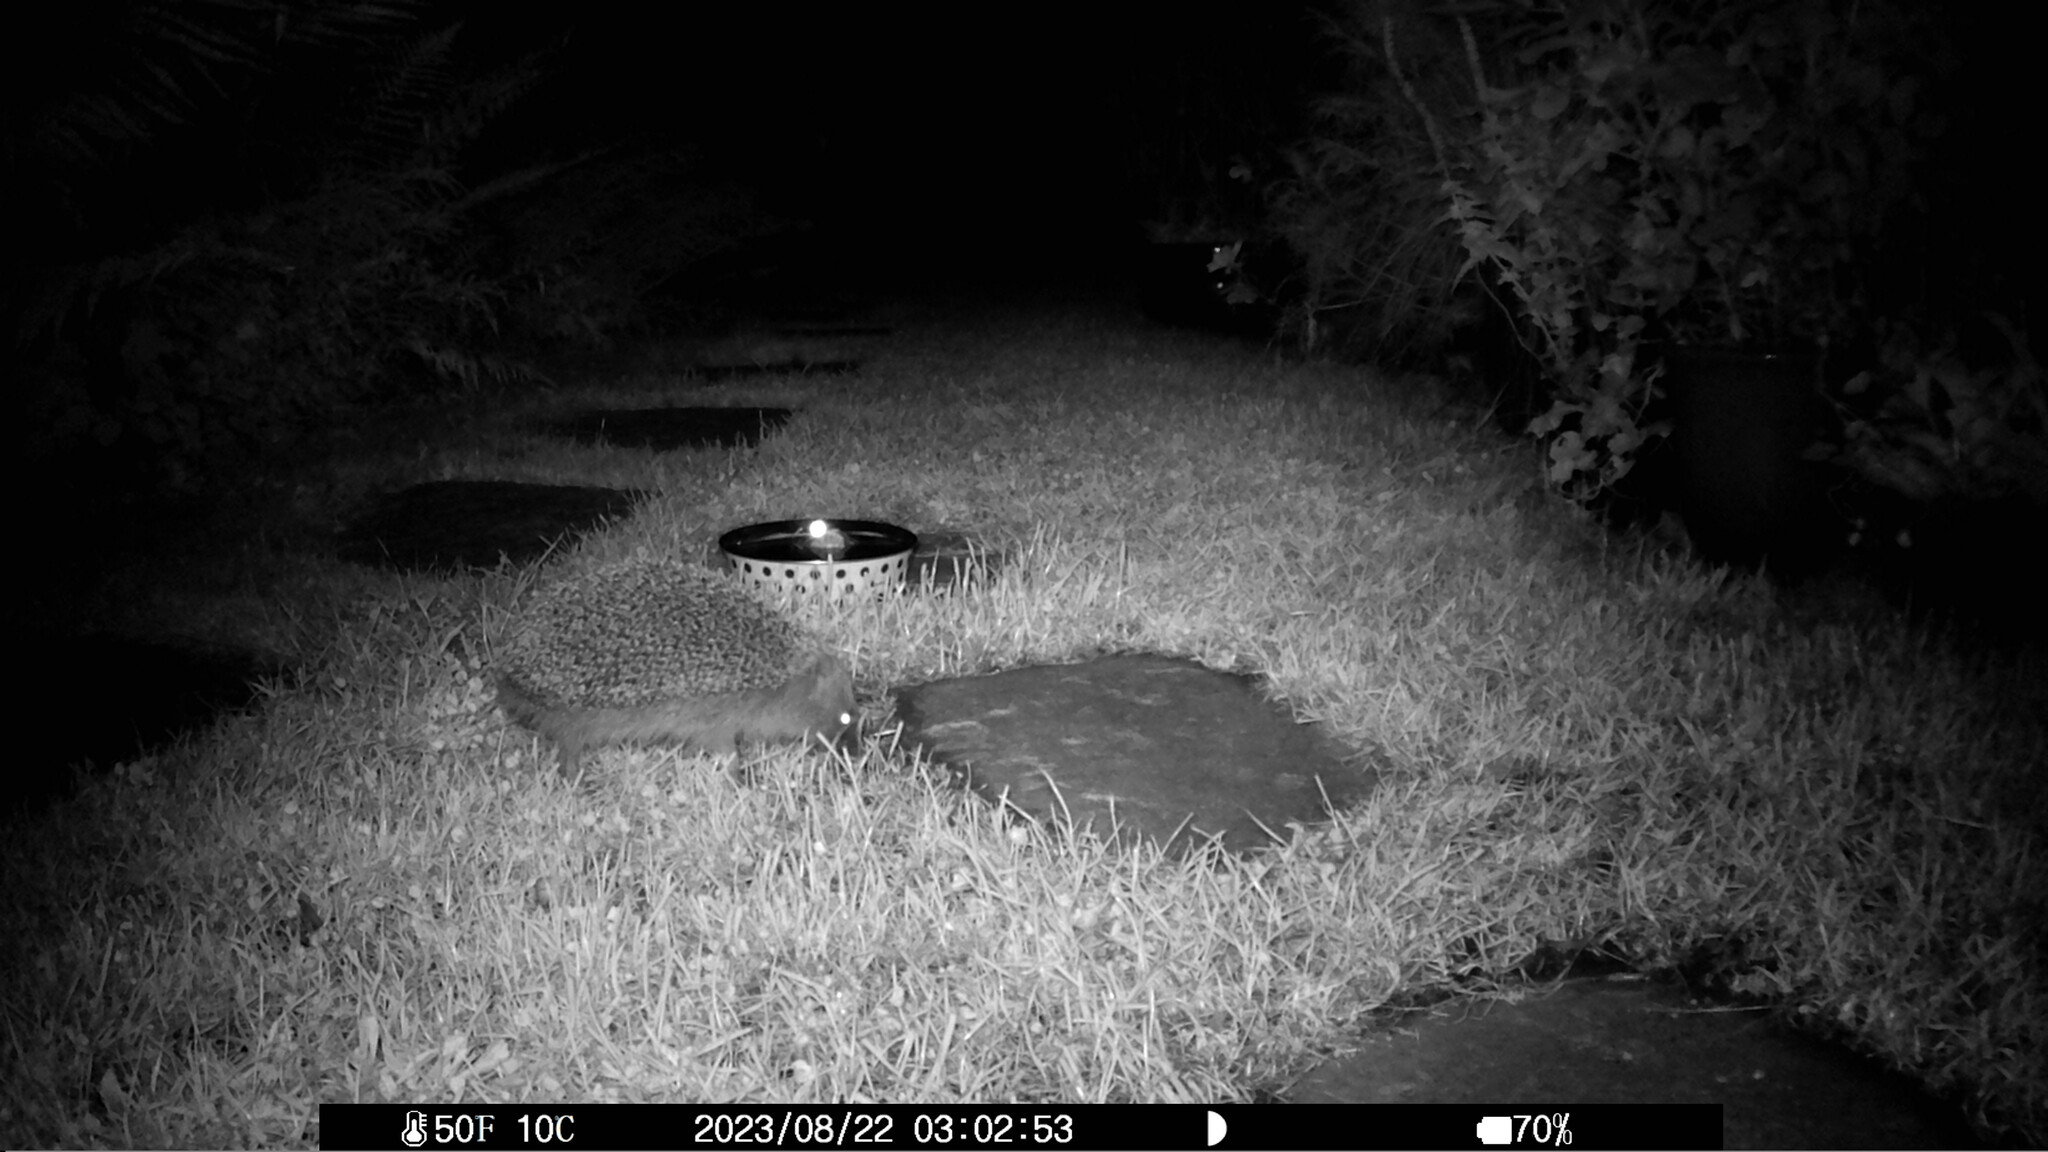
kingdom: Animalia
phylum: Chordata
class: Mammalia
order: Erinaceomorpha
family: Erinaceidae
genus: Erinaceus
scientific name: Erinaceus europaeus
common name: West european hedgehog
